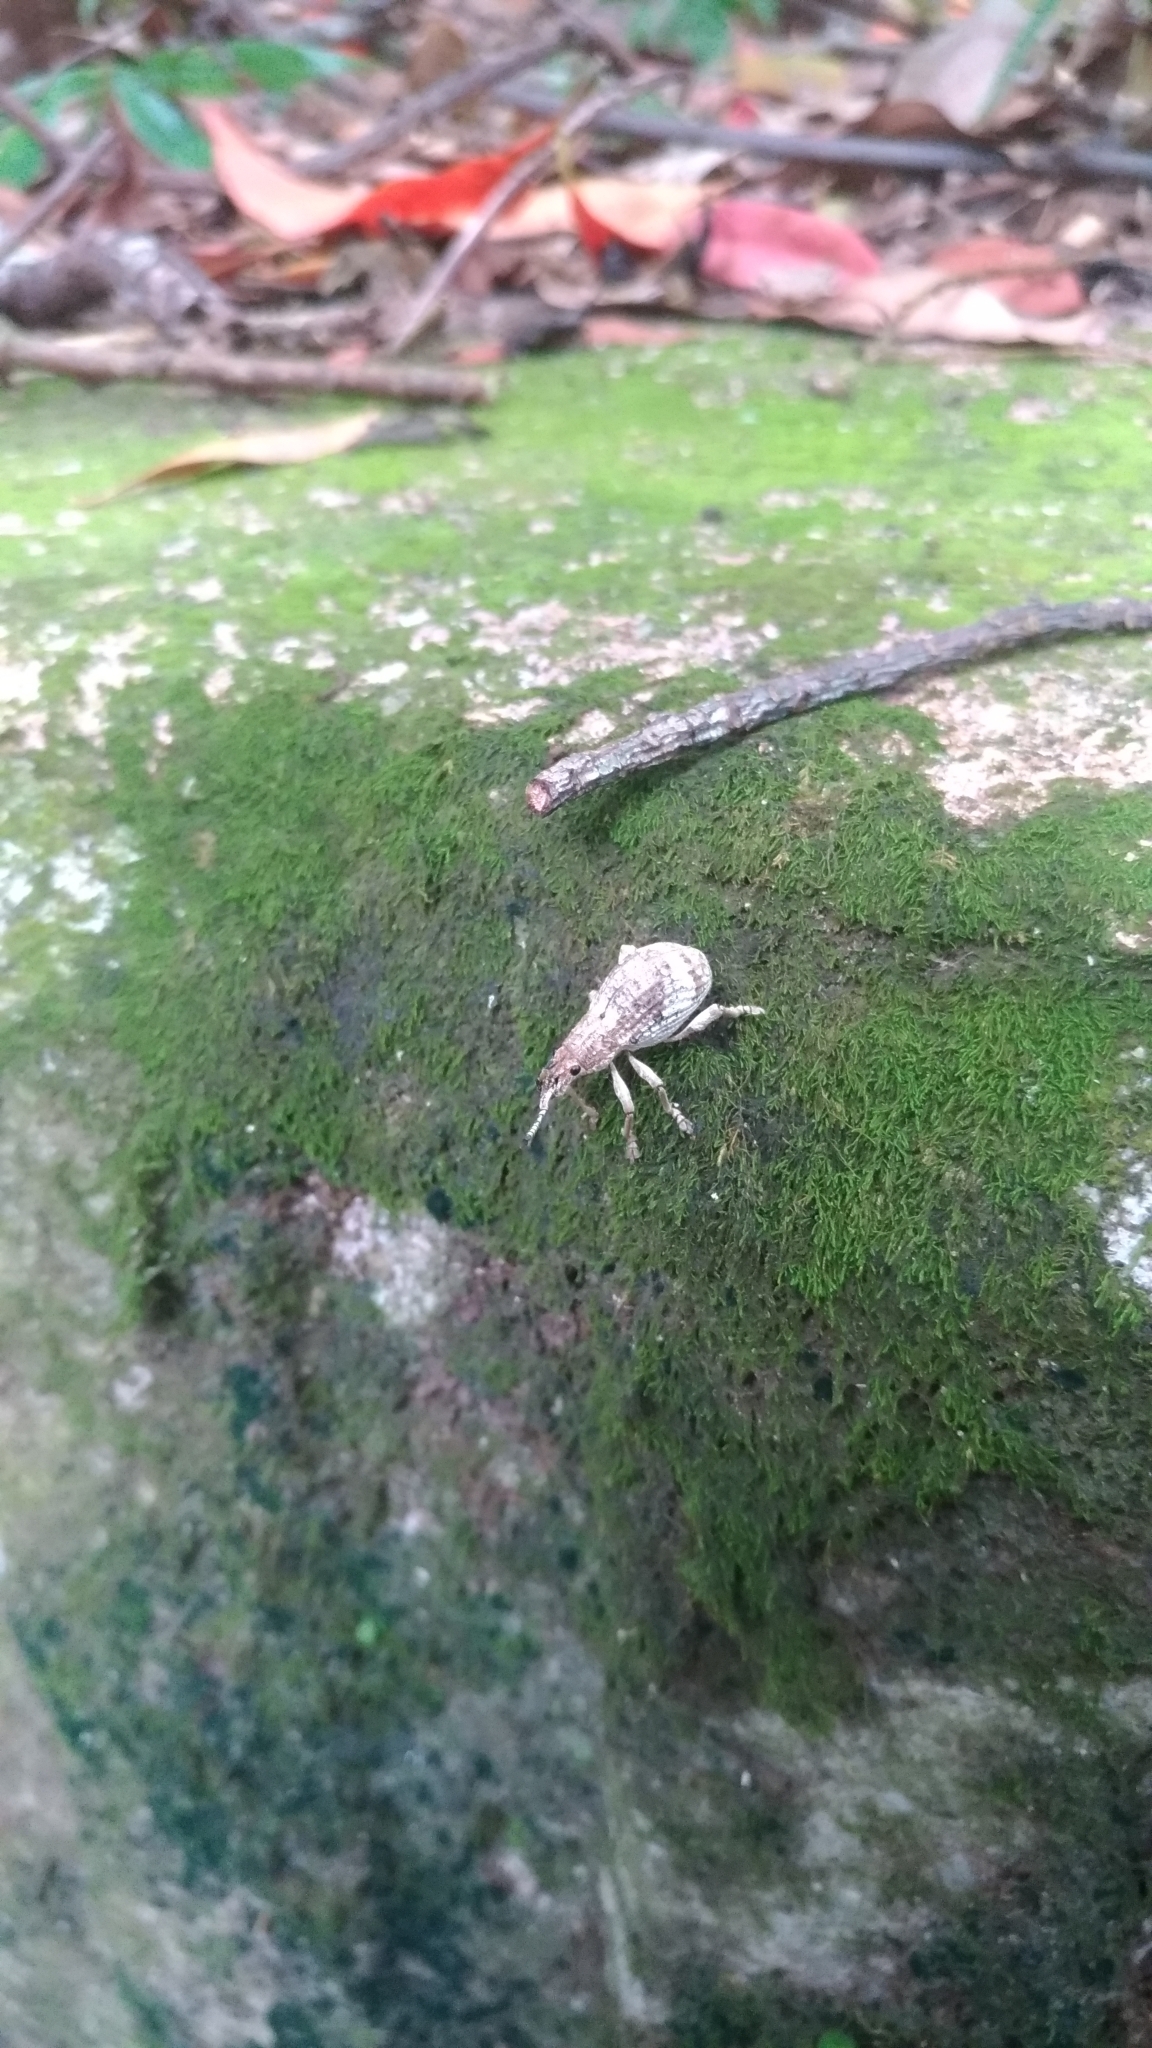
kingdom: Animalia
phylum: Arthropoda
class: Insecta
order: Coleoptera
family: Curculionidae
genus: Episomus
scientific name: Episomus mori
